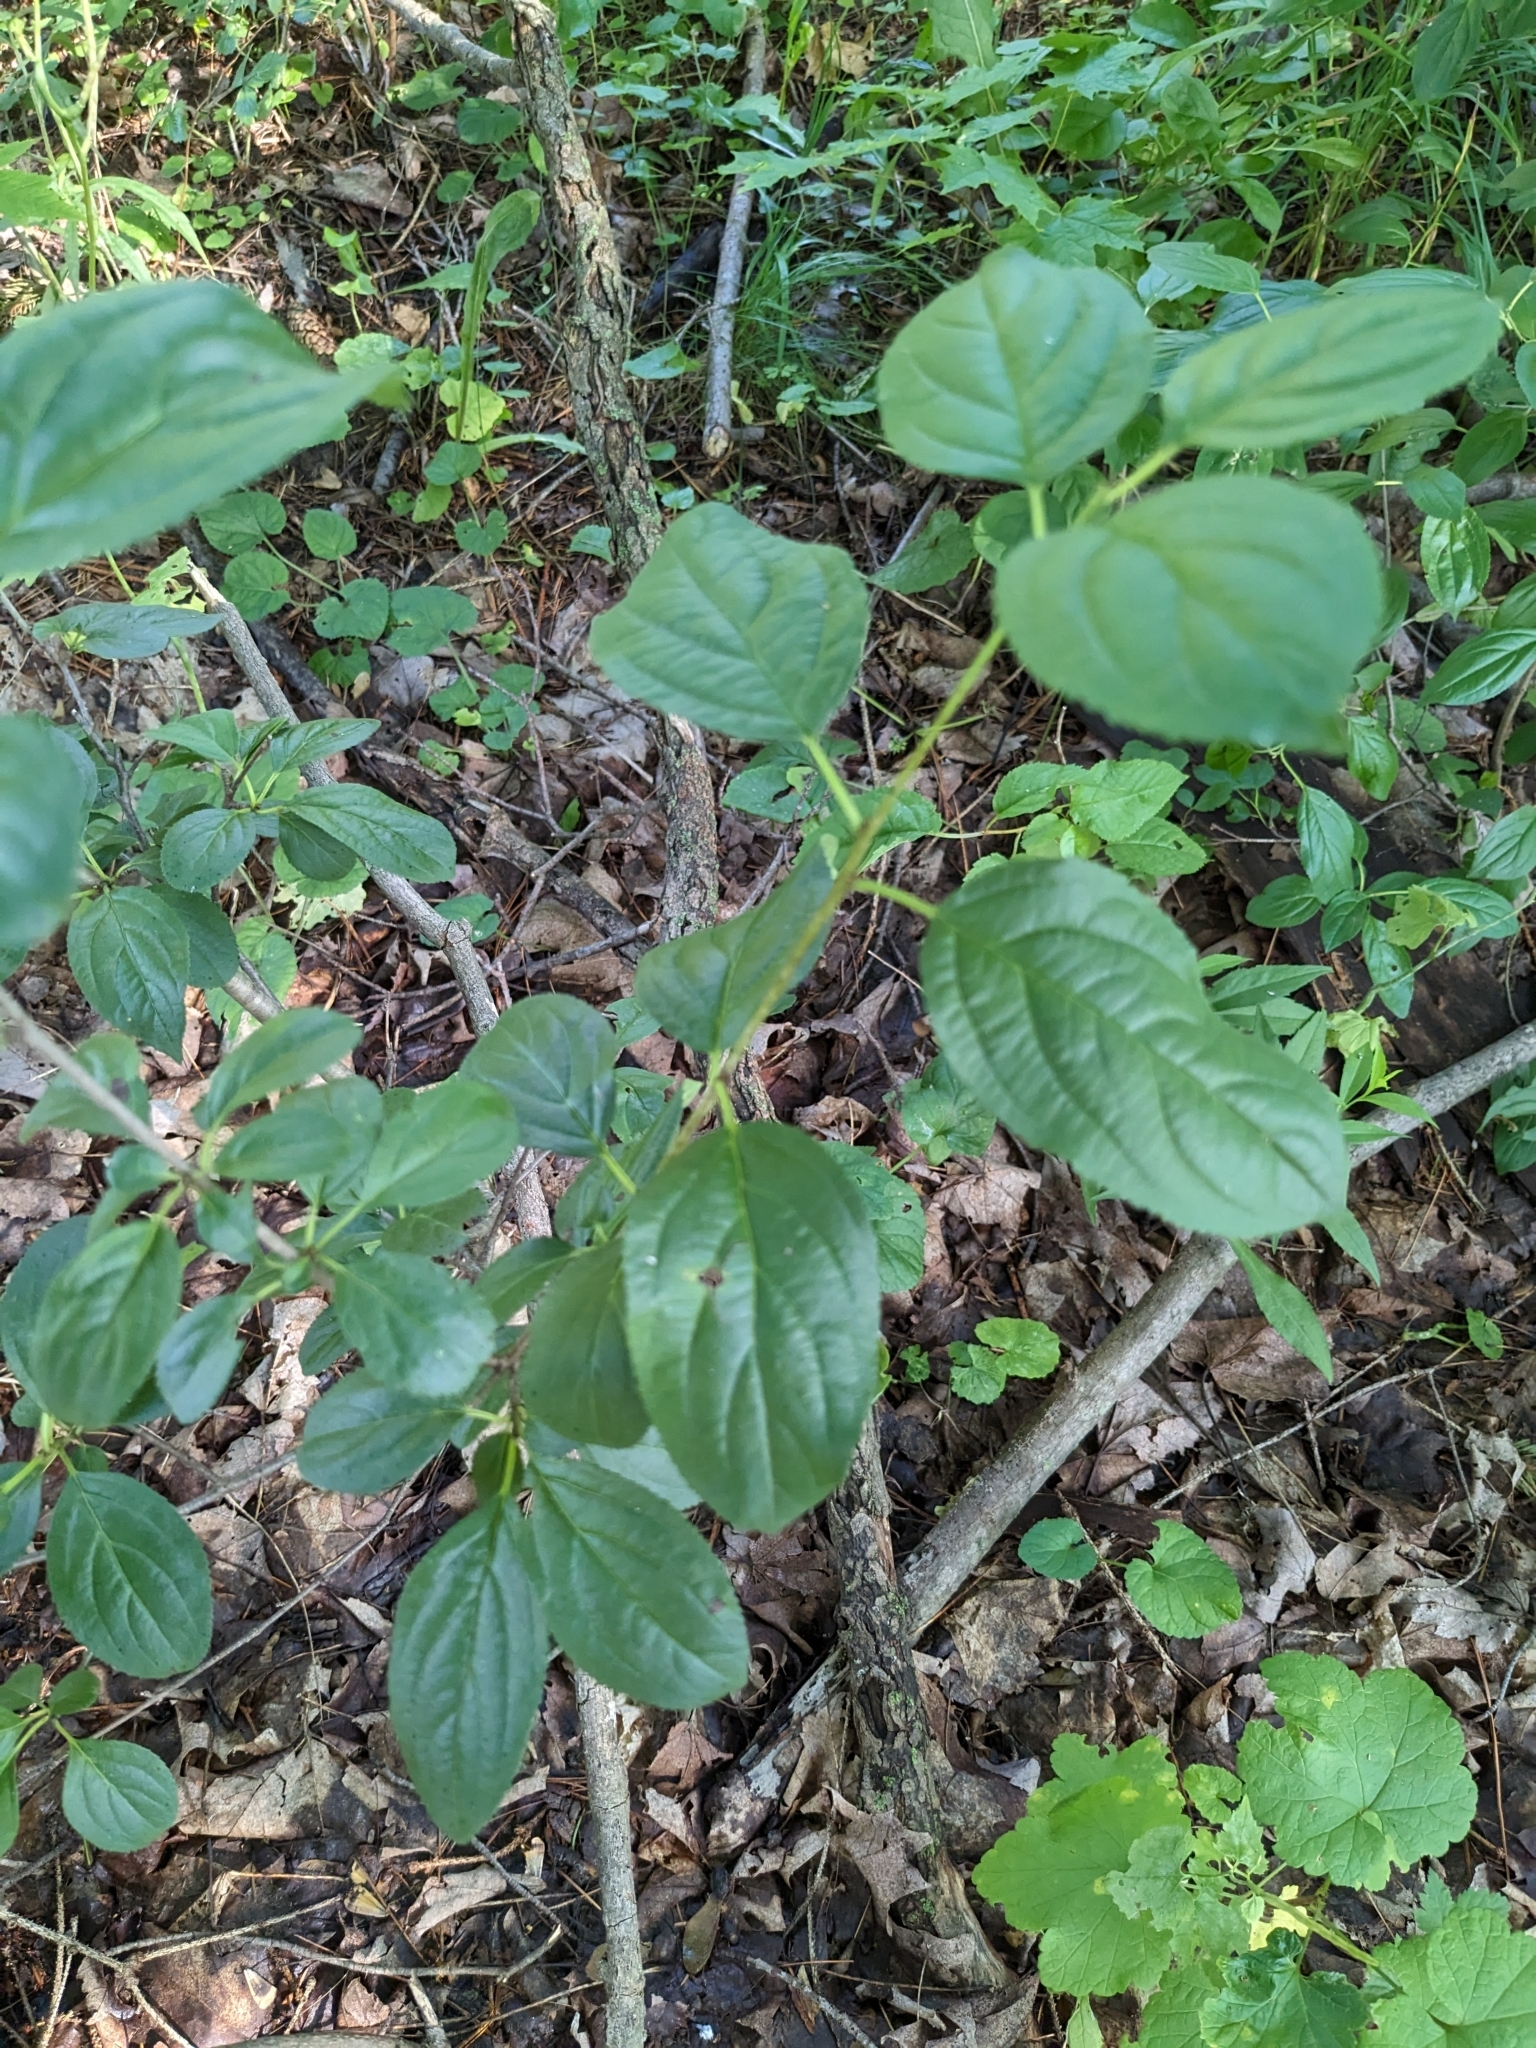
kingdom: Plantae
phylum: Tracheophyta
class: Magnoliopsida
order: Rosales
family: Rhamnaceae
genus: Rhamnus
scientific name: Rhamnus cathartica
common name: Common buckthorn
